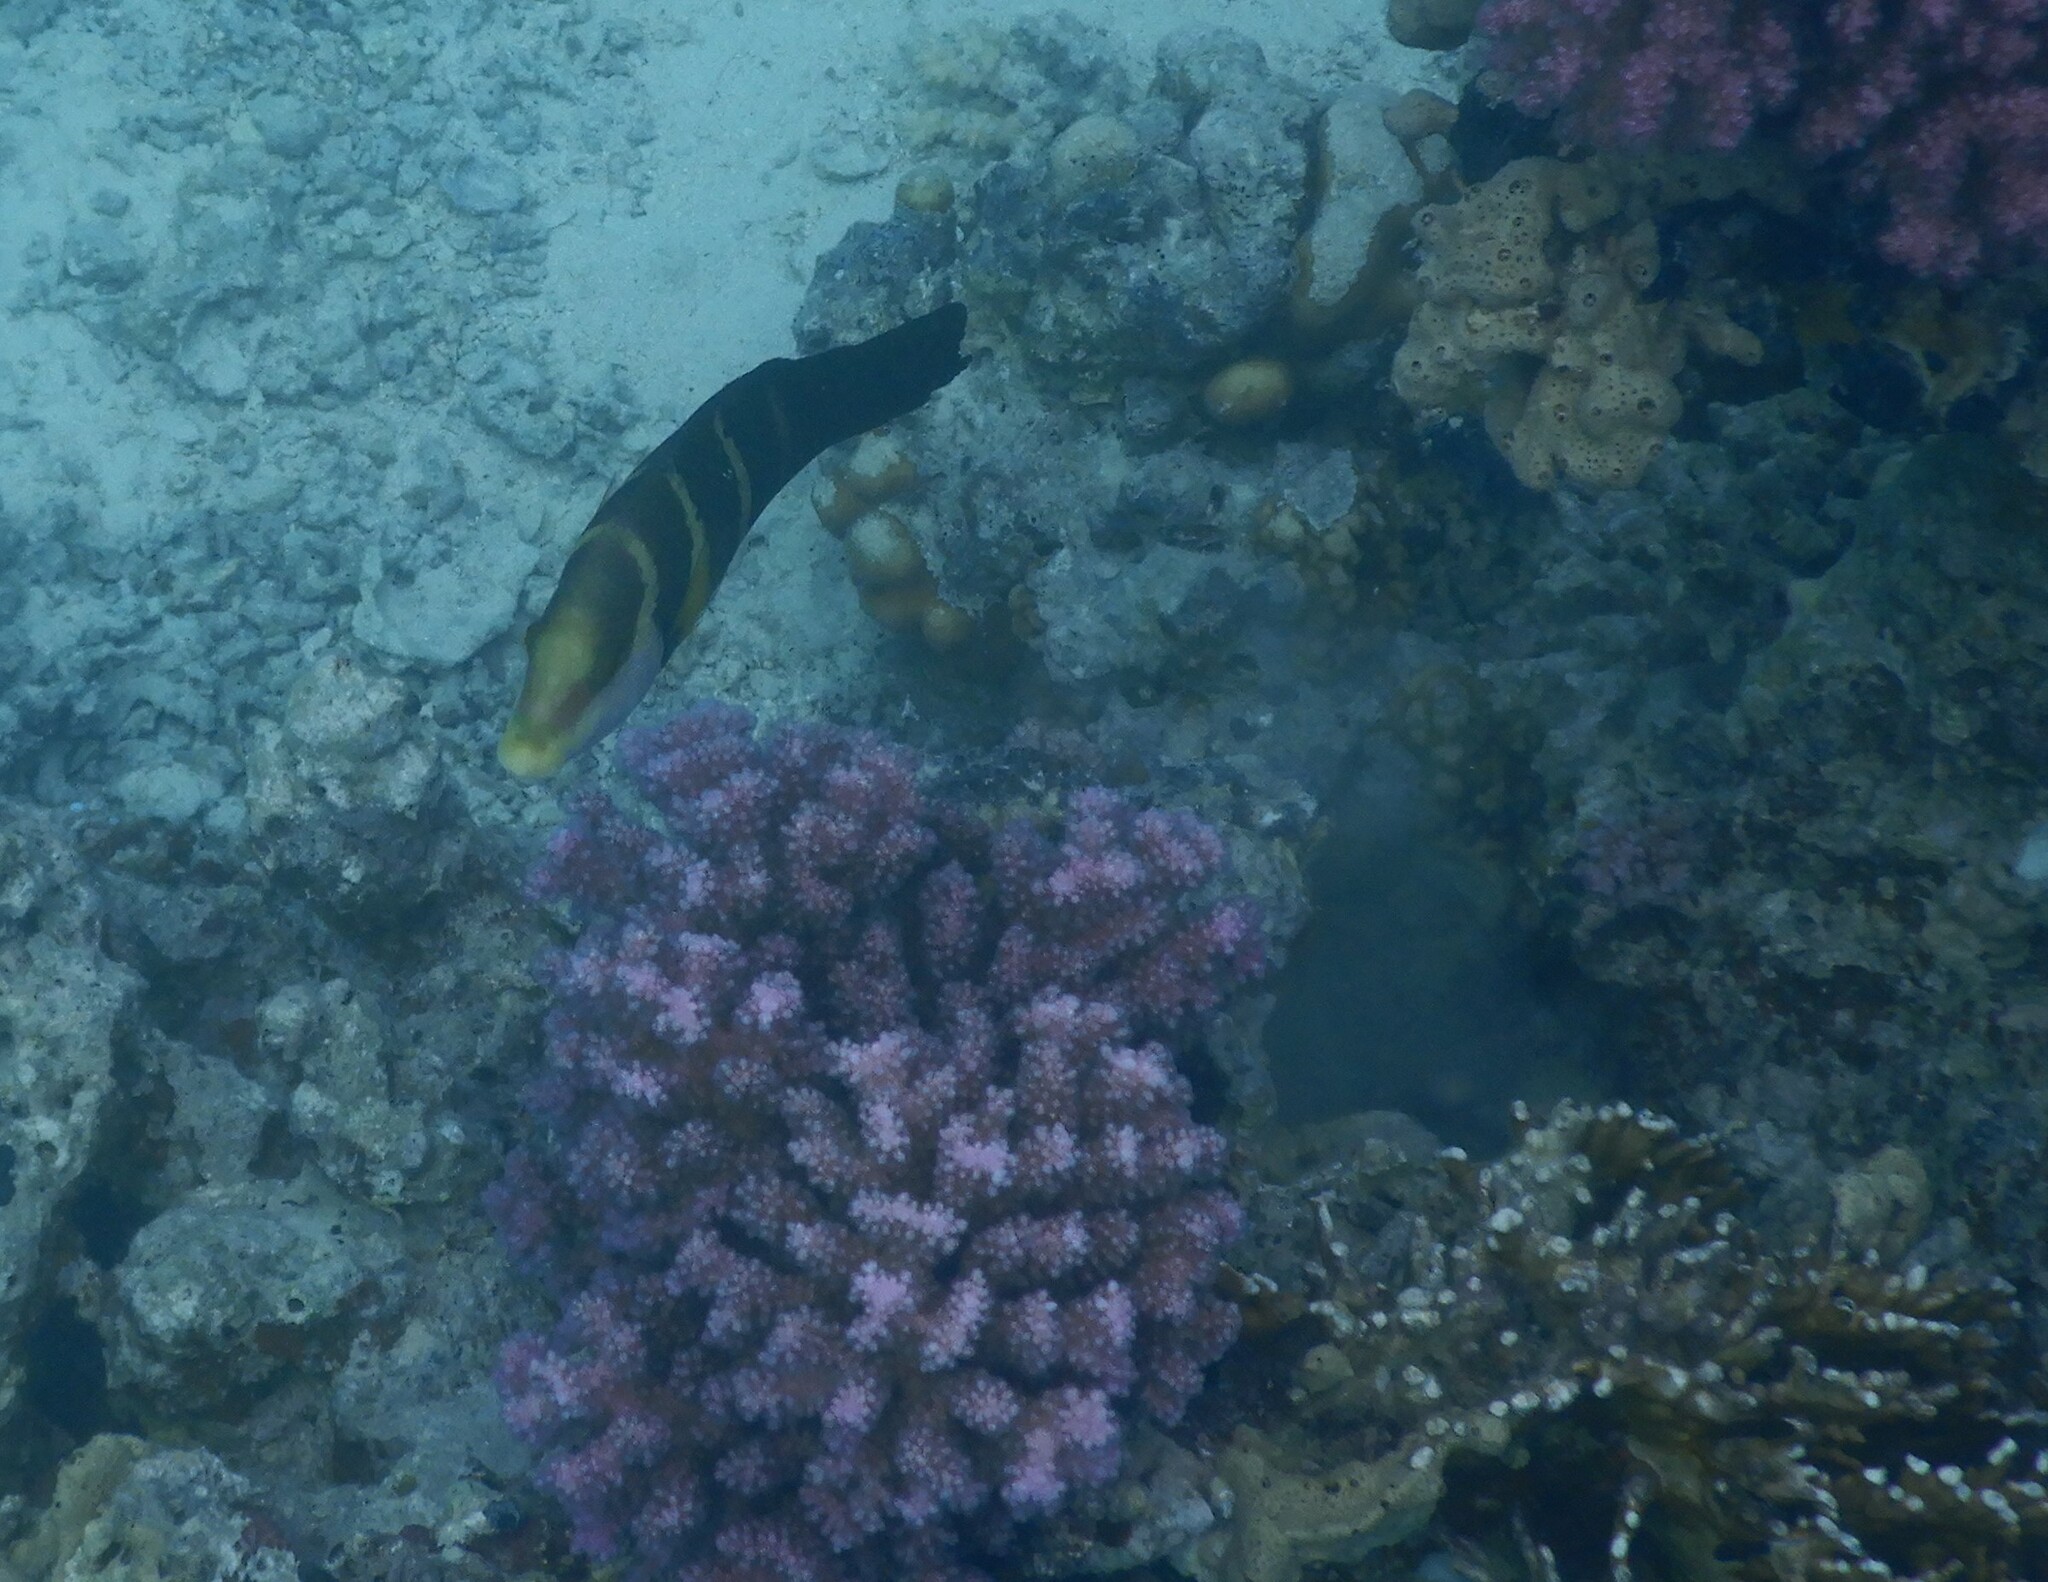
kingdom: Animalia
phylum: Chordata
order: Perciformes
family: Labridae
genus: Hemigymnus
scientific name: Hemigymnus sexfasciatus
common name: Barred thicklip
